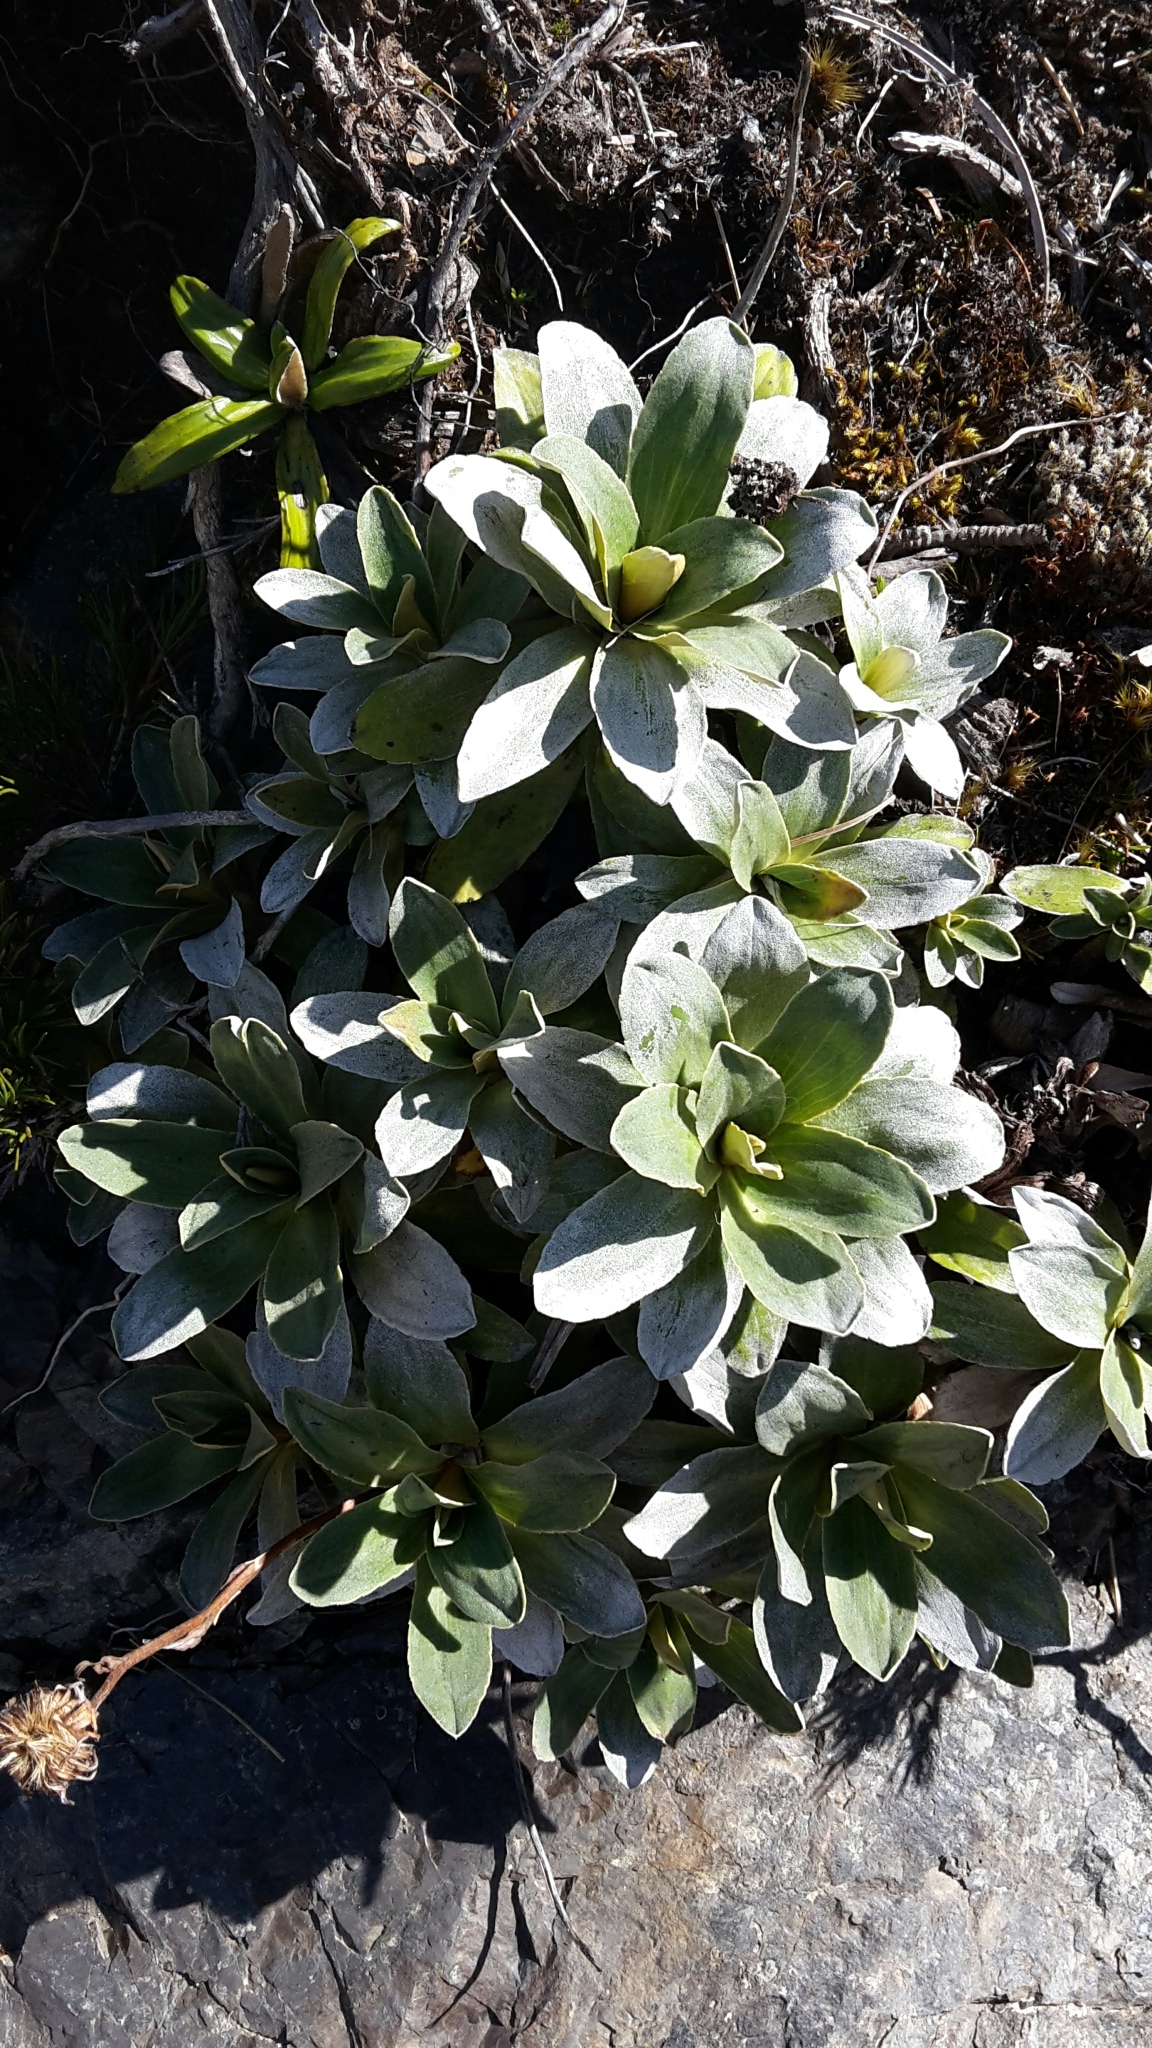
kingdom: Plantae
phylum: Tracheophyta
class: Magnoliopsida
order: Asterales
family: Asteraceae
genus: Celmisia
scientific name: Celmisia hieraciifolia
